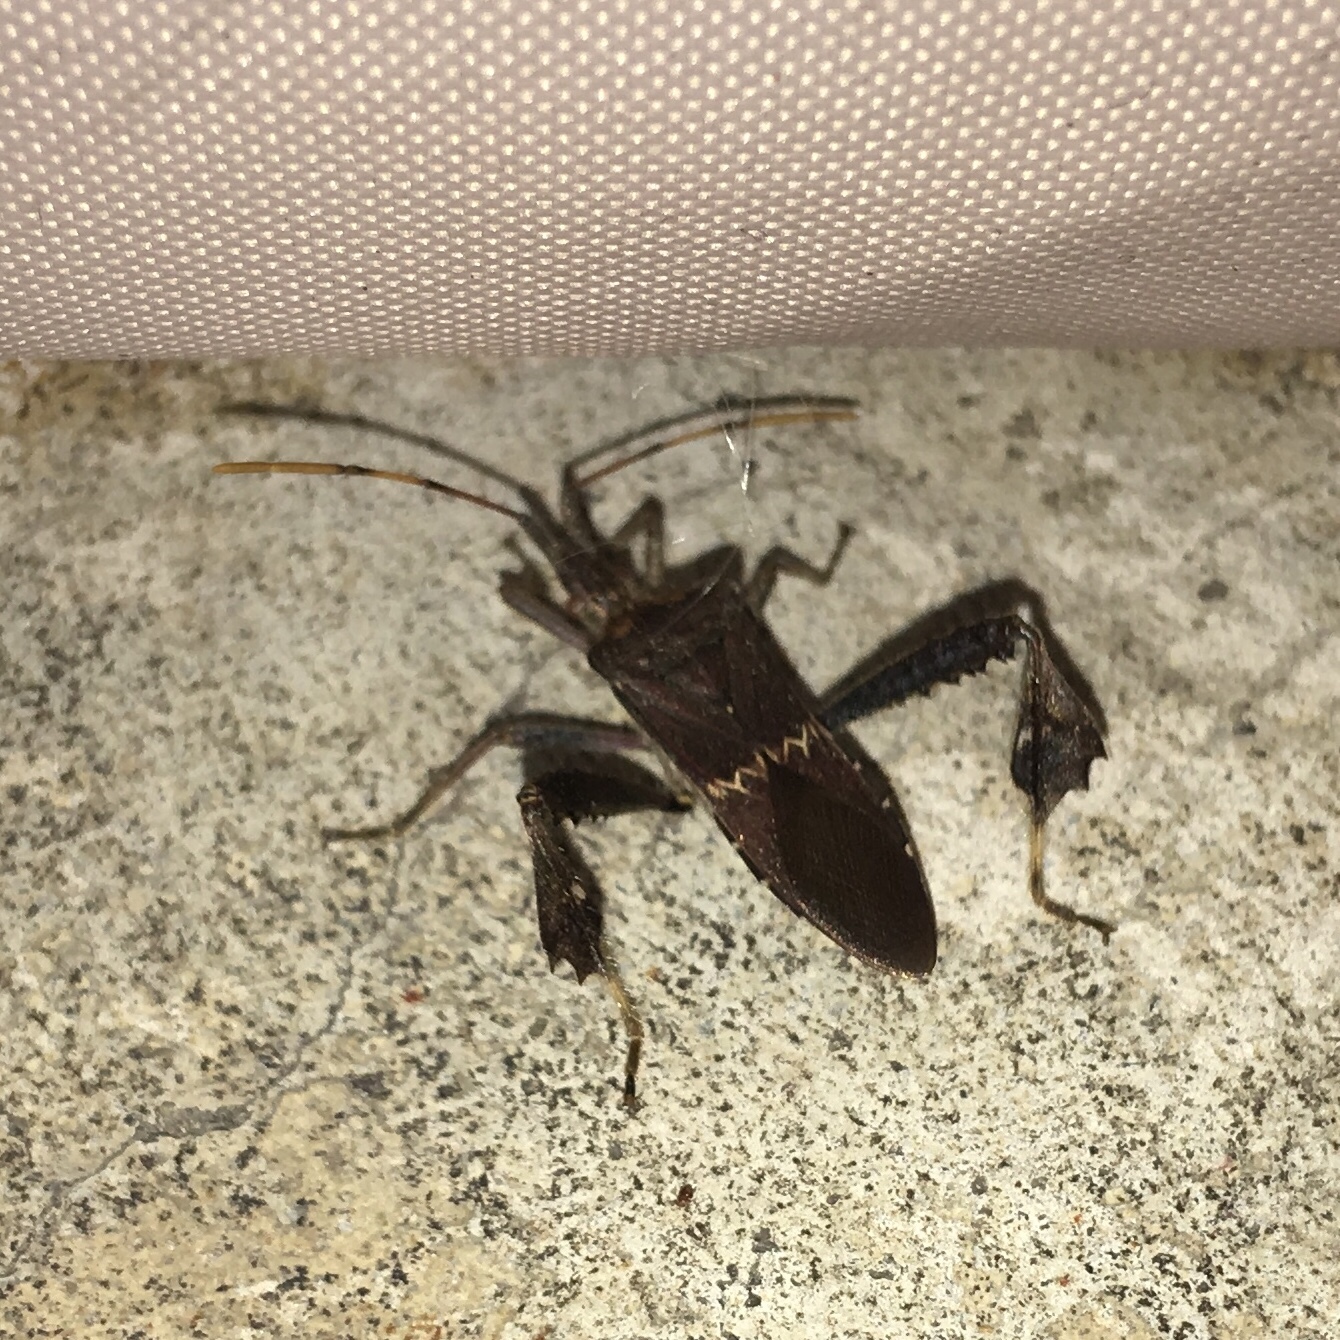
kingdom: Animalia
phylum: Arthropoda
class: Insecta
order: Hemiptera
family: Coreidae
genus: Leptoglossus
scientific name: Leptoglossus zonatus
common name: Large-legged bug
